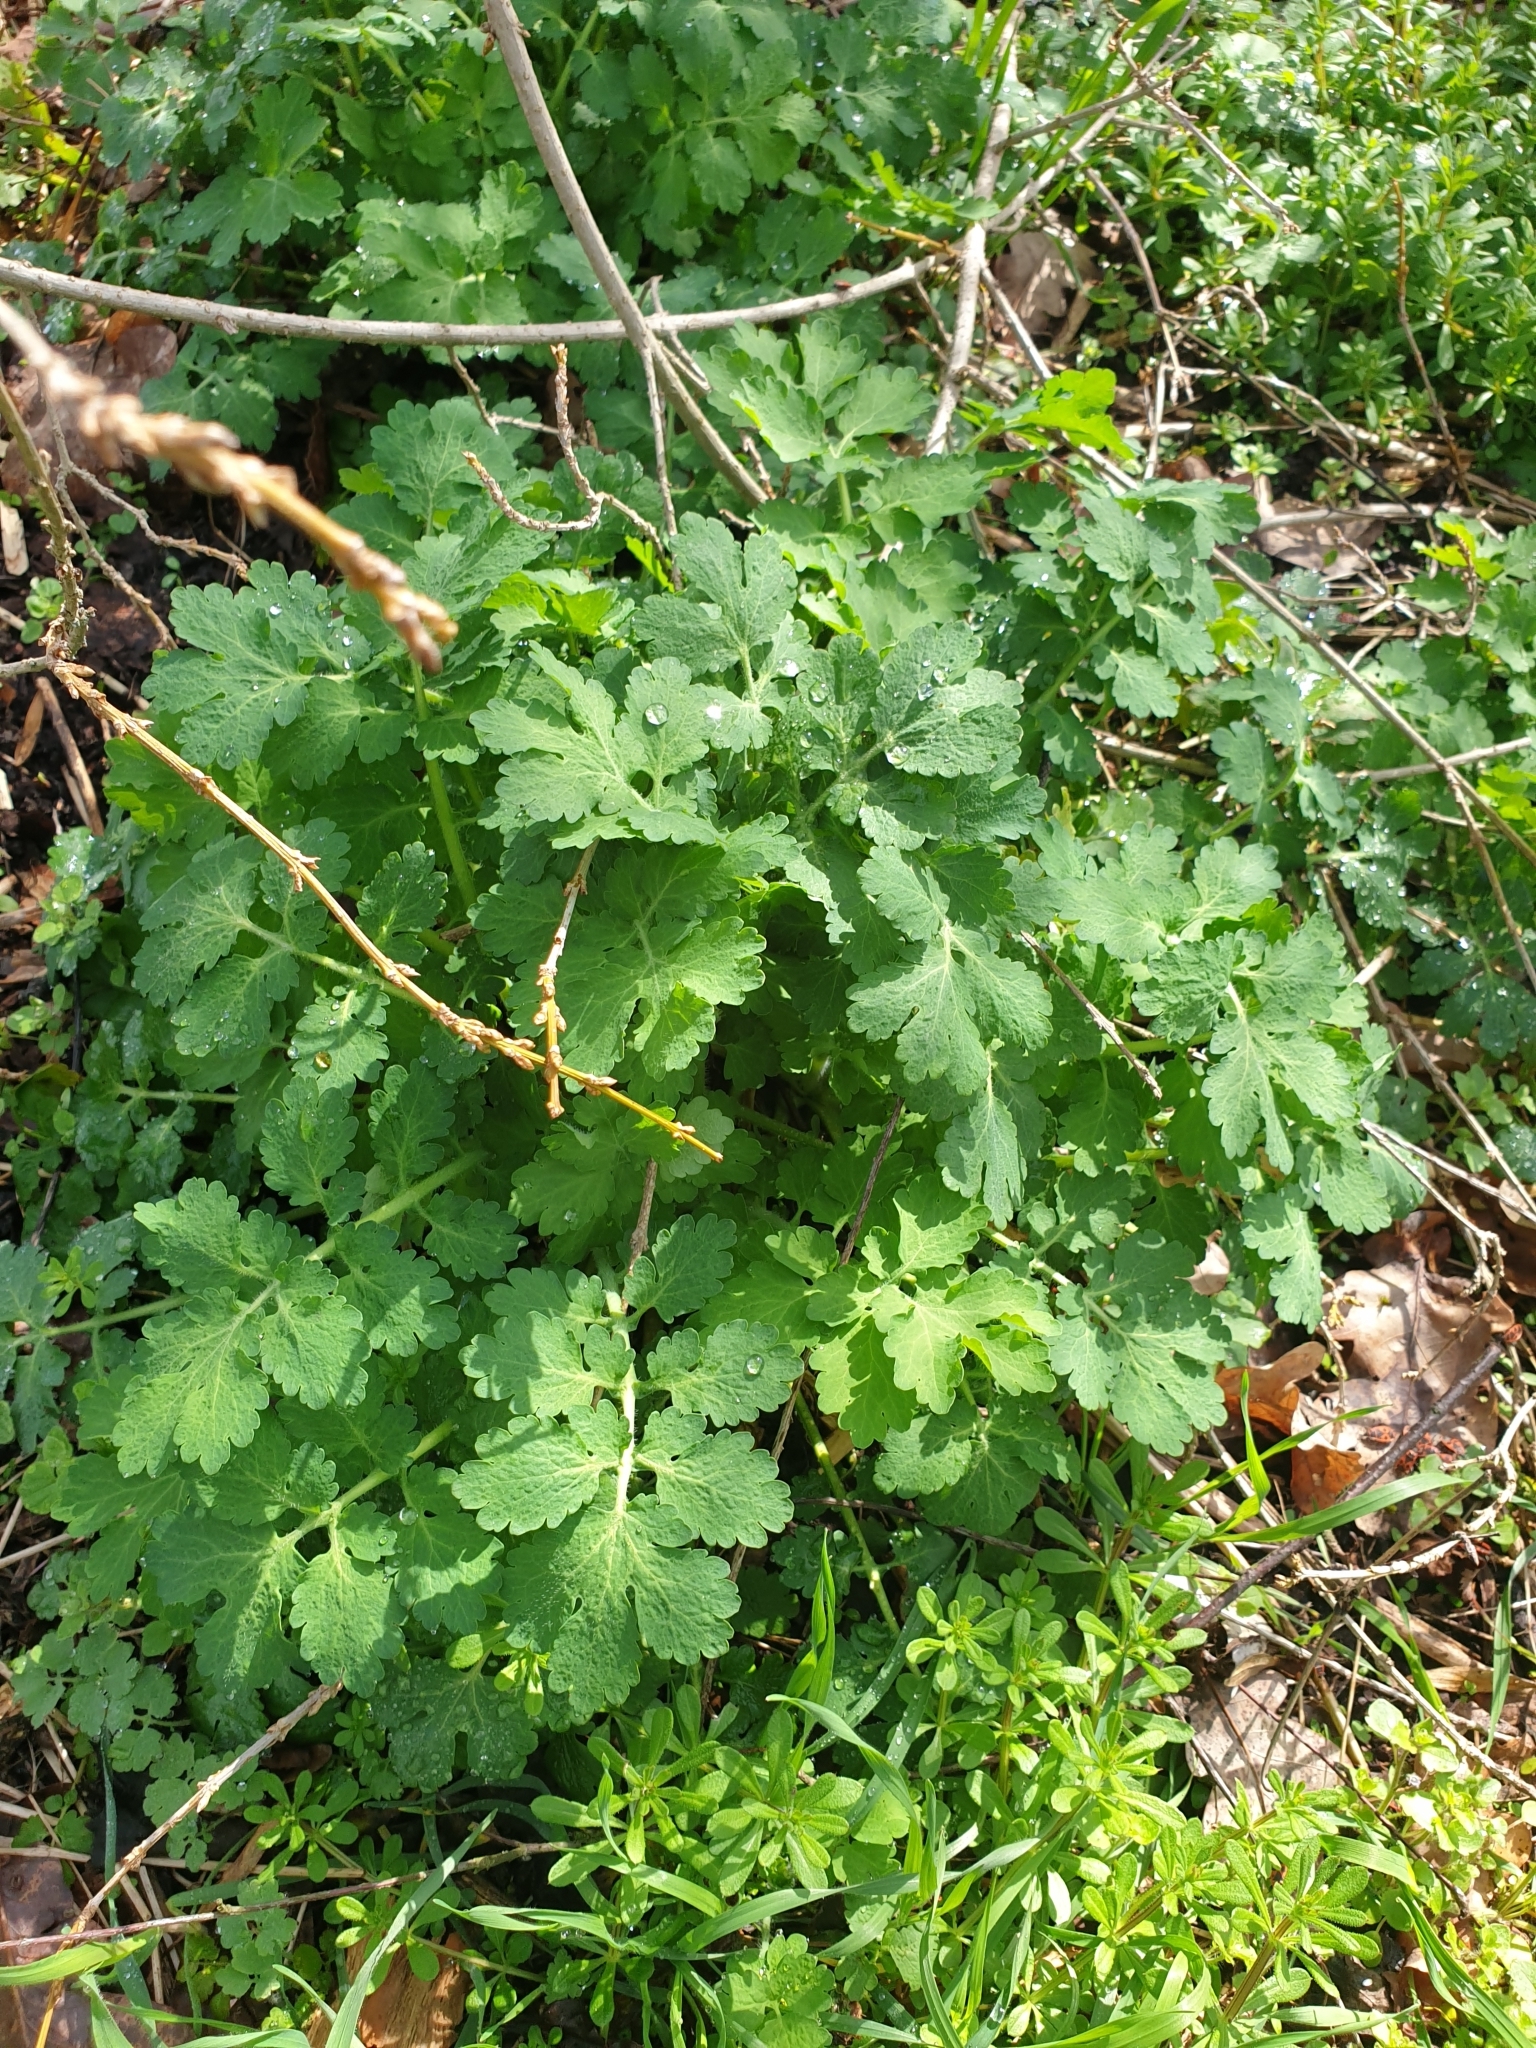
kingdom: Plantae
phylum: Tracheophyta
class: Magnoliopsida
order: Ranunculales
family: Papaveraceae
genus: Chelidonium
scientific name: Chelidonium majus
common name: Greater celandine
